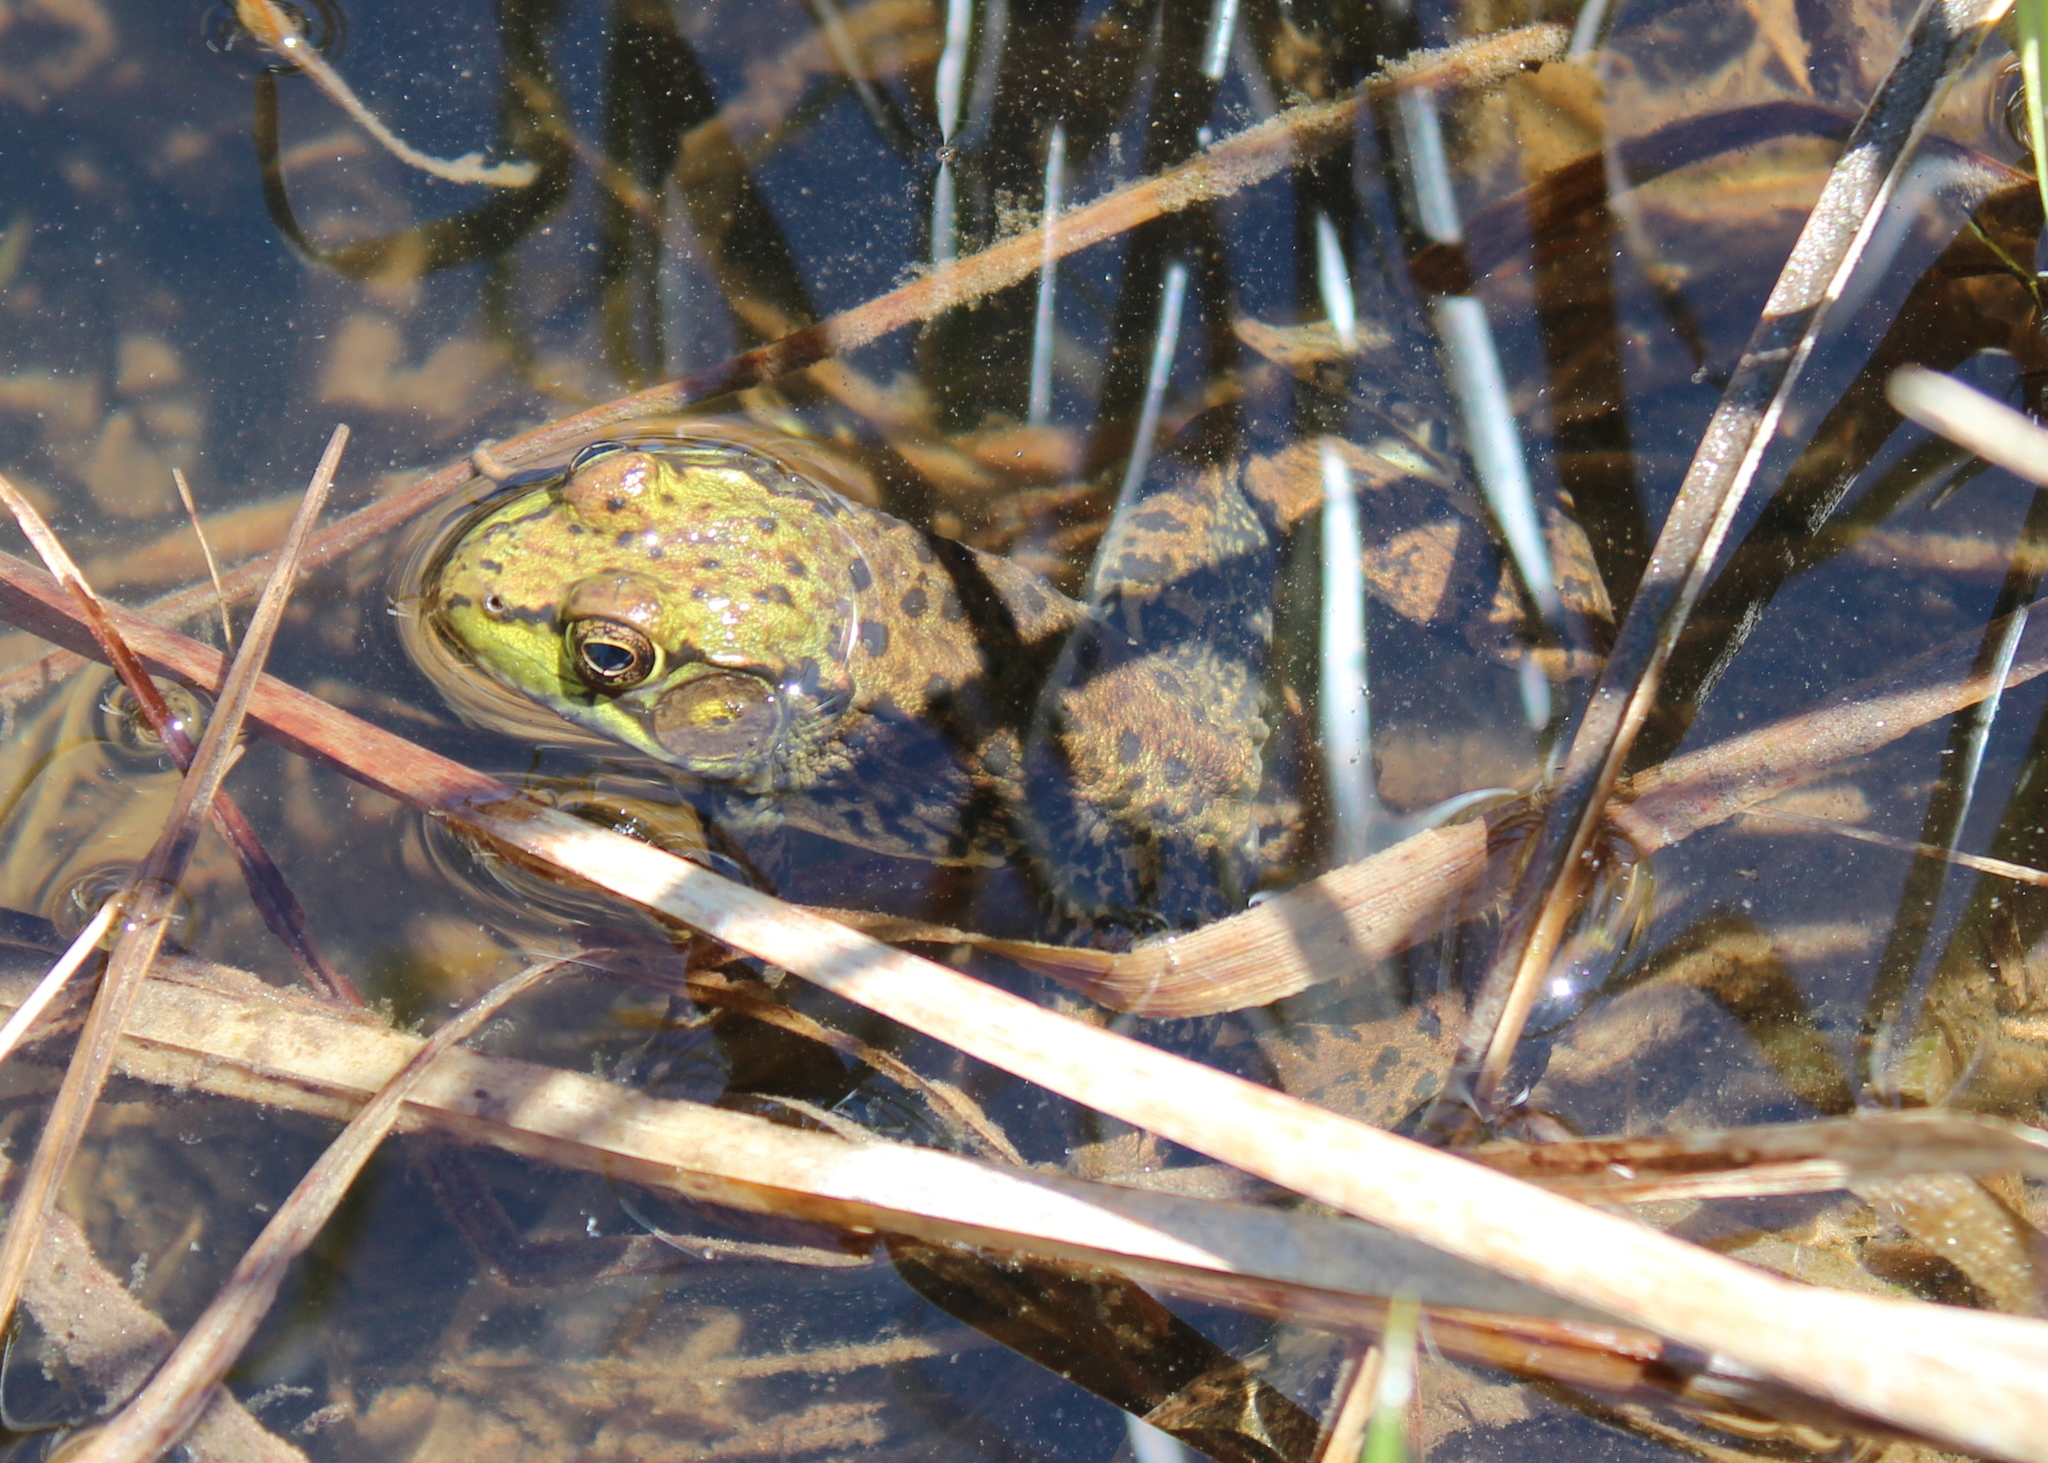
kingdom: Animalia
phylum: Chordata
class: Amphibia
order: Anura
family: Ranidae
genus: Lithobates
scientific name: Lithobates clamitans
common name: Green frog
